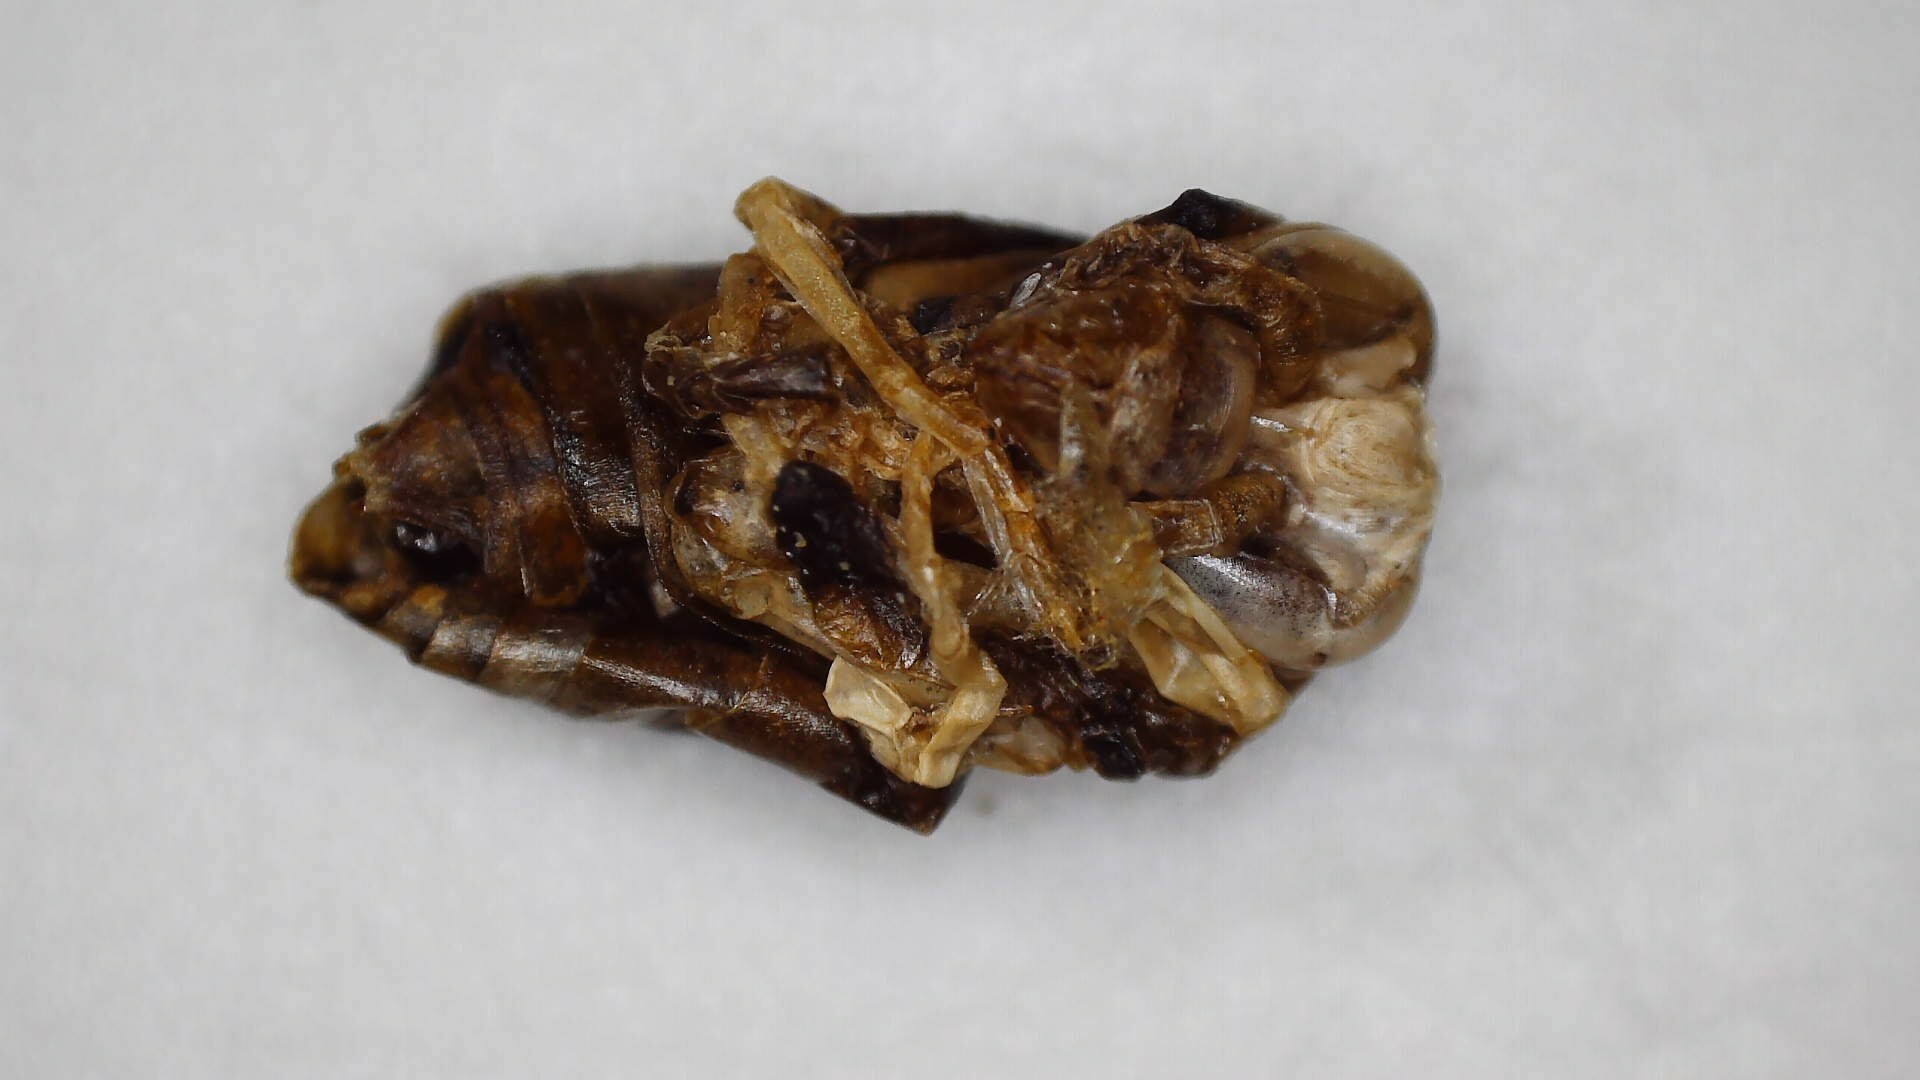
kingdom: Animalia
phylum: Arthropoda
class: Insecta
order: Hymenoptera
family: Vespidae
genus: Dolichovespula
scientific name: Dolichovespula maculata
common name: Bald-faced hornet
